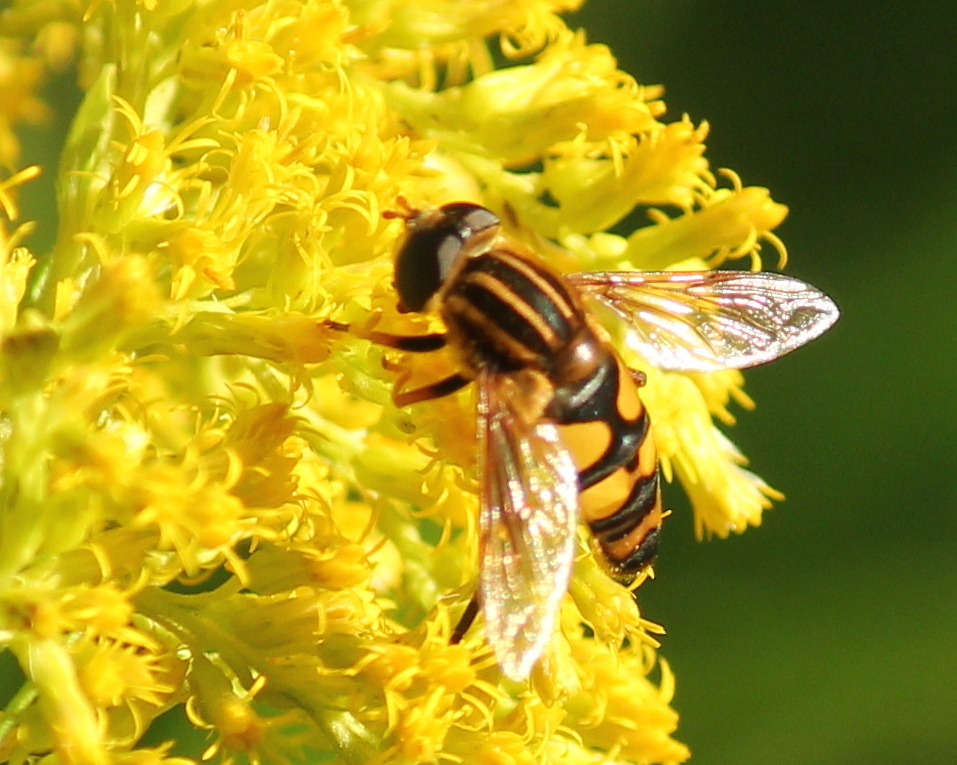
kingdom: Animalia
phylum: Arthropoda
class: Insecta
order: Diptera
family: Syrphidae
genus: Helophilus
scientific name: Helophilus fasciatus
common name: Narrow-headed marsh fly
